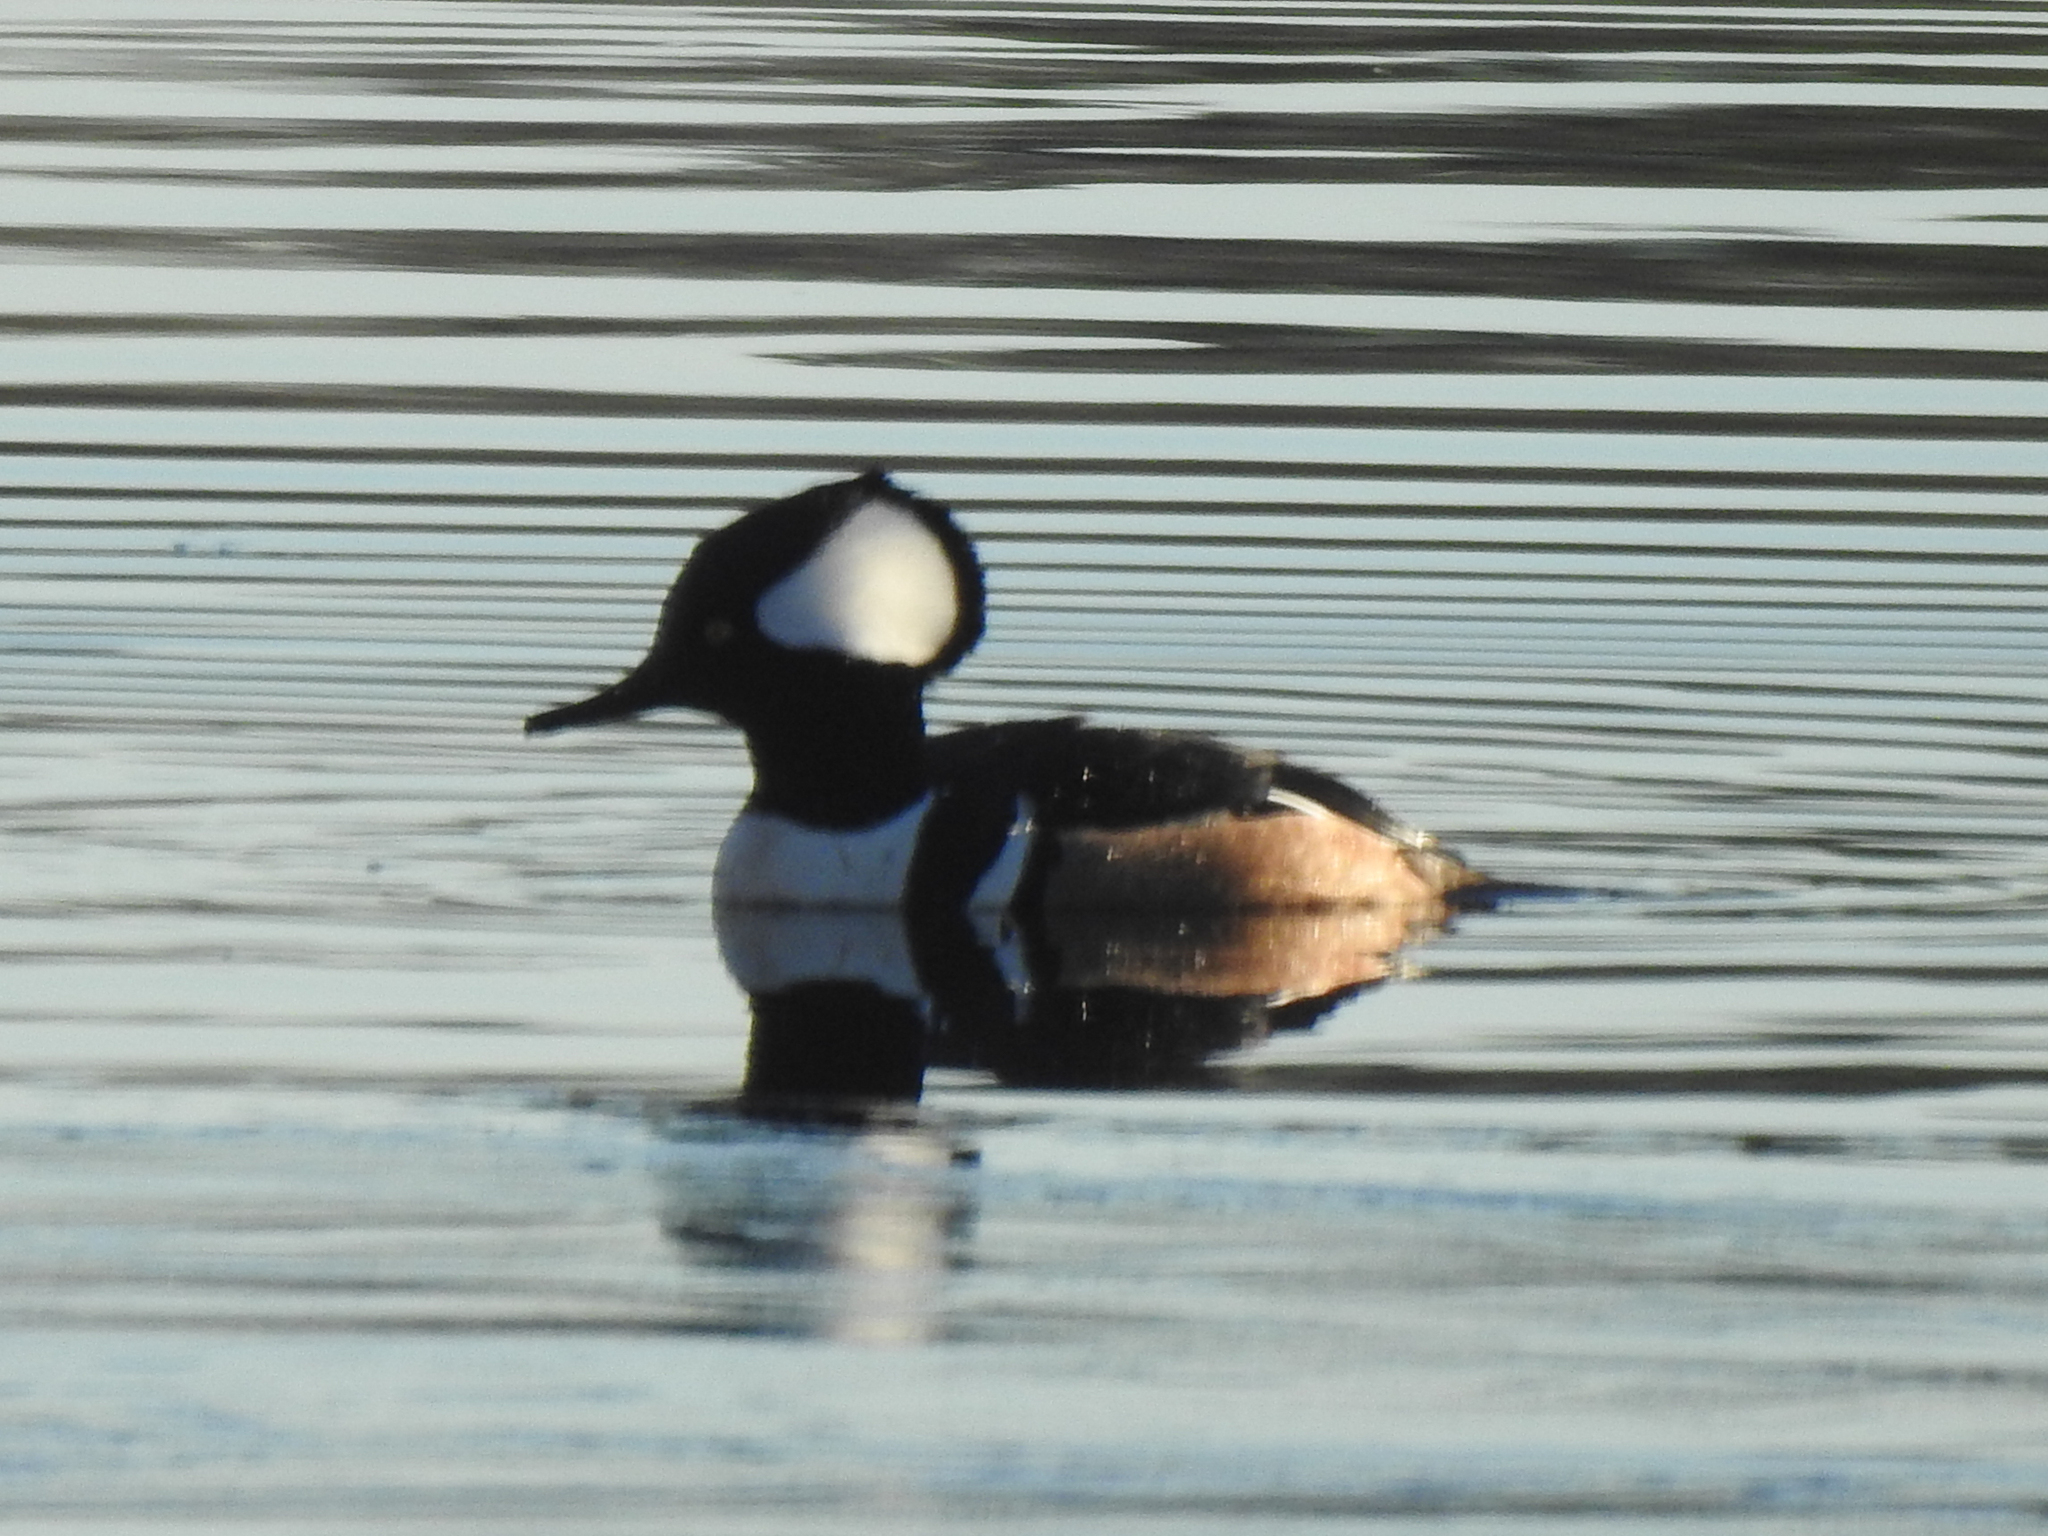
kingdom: Animalia
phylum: Chordata
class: Aves
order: Anseriformes
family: Anatidae
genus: Lophodytes
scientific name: Lophodytes cucullatus
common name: Hooded merganser
